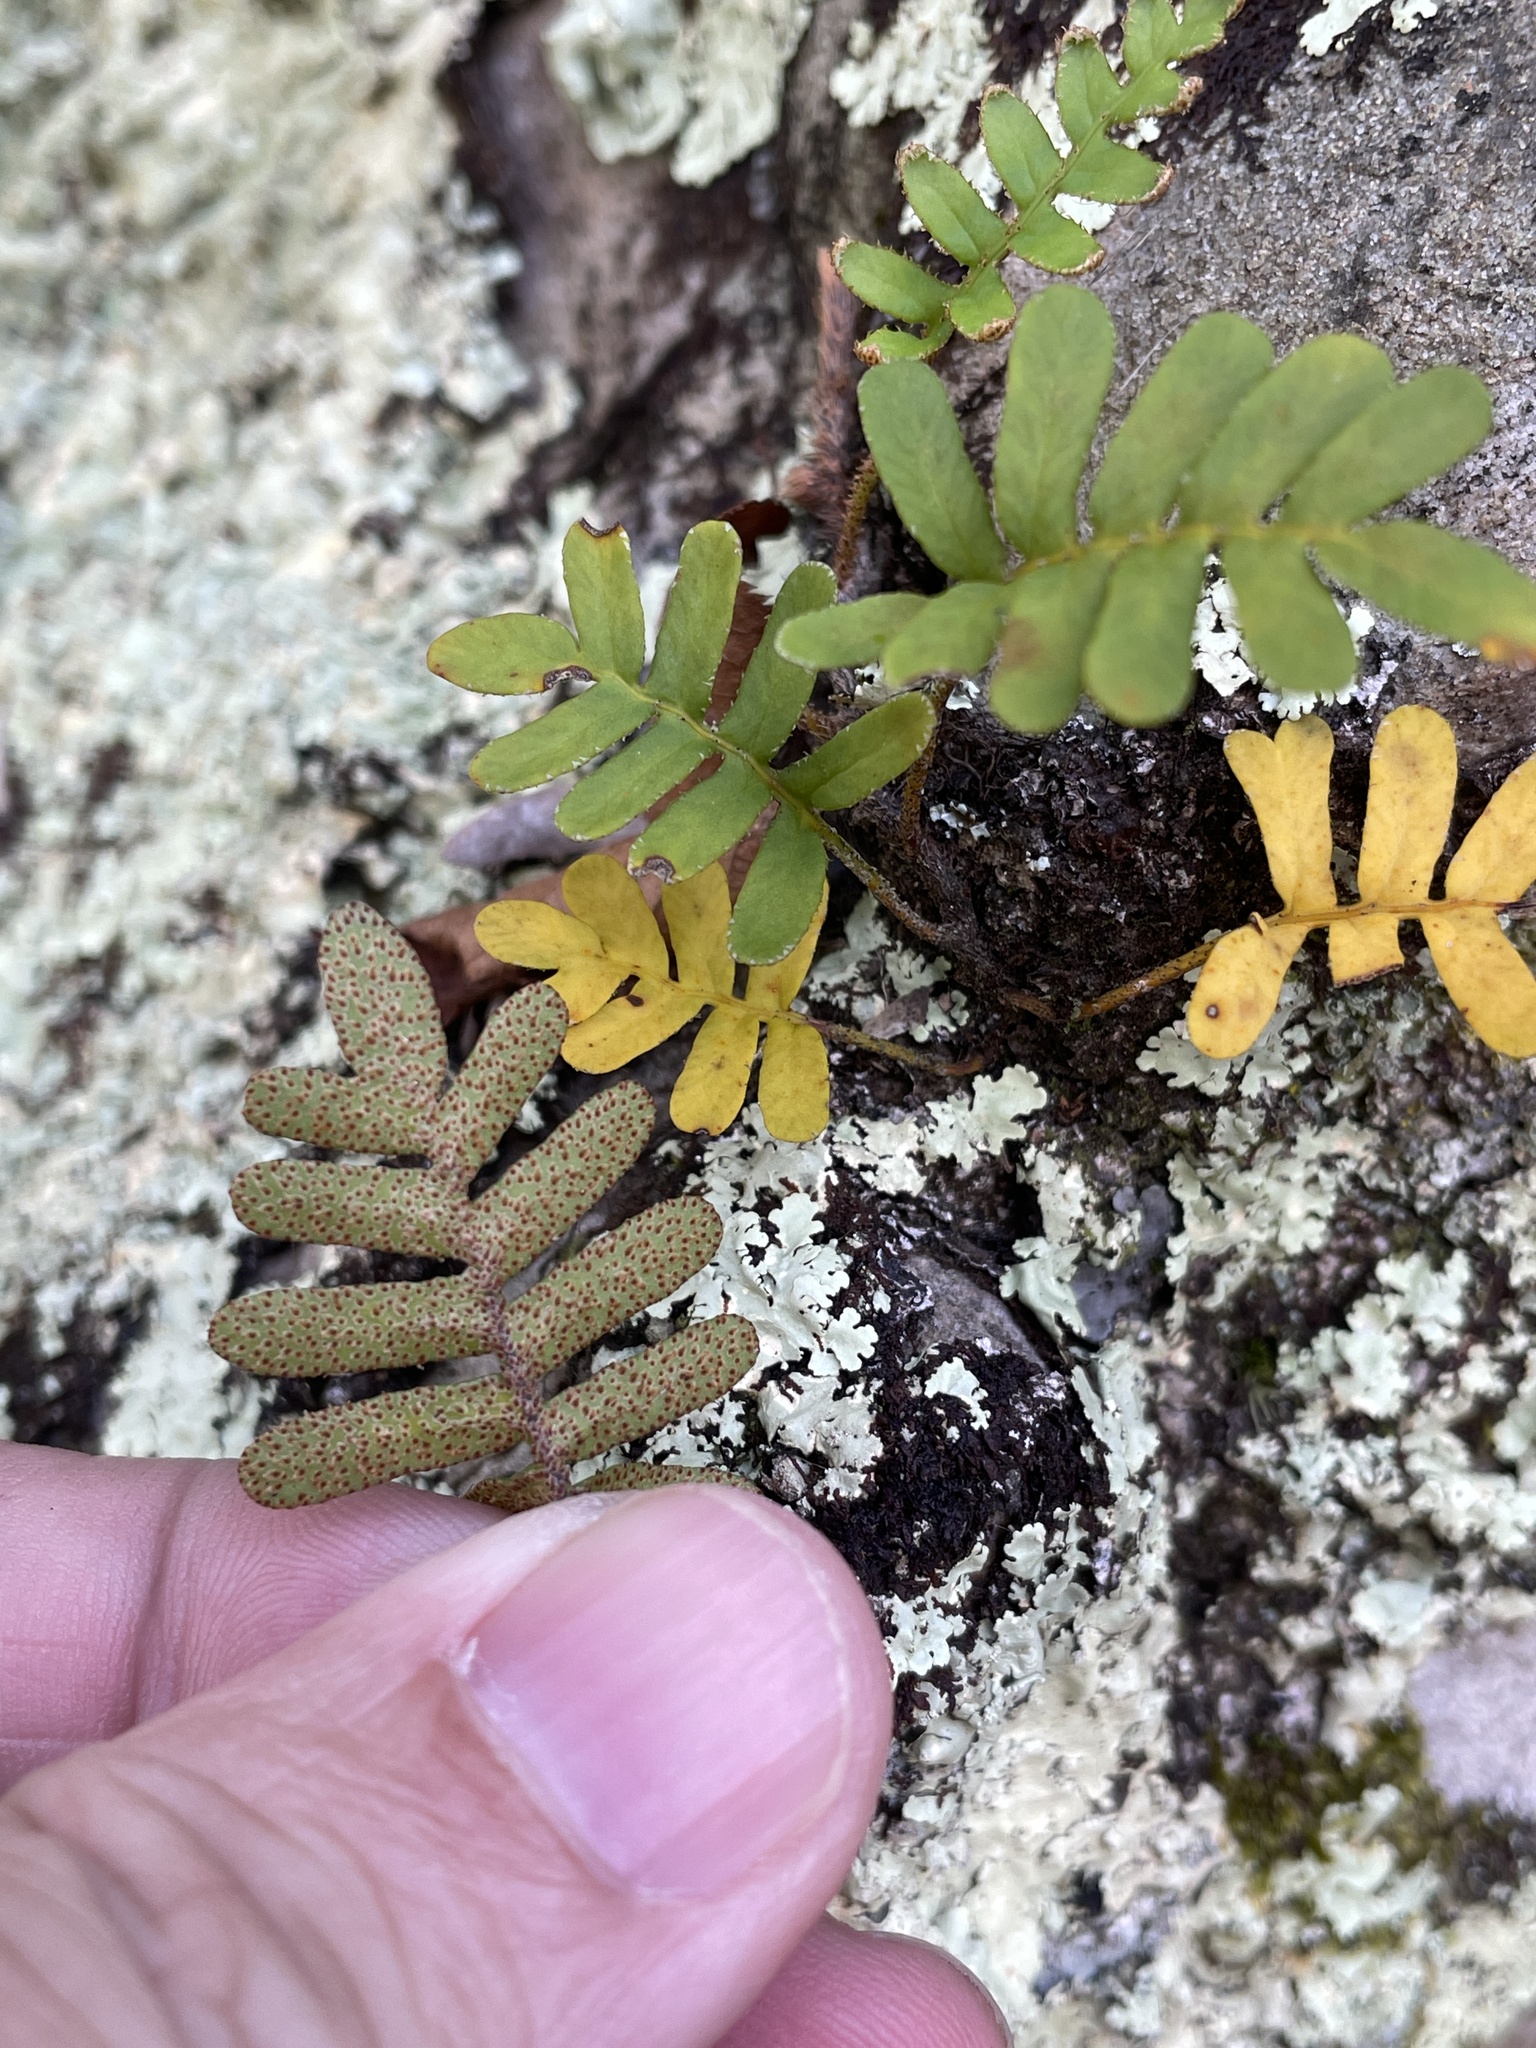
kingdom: Plantae
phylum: Tracheophyta
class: Polypodiopsida
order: Polypodiales
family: Polypodiaceae
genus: Pleopeltis
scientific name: Pleopeltis michauxiana
